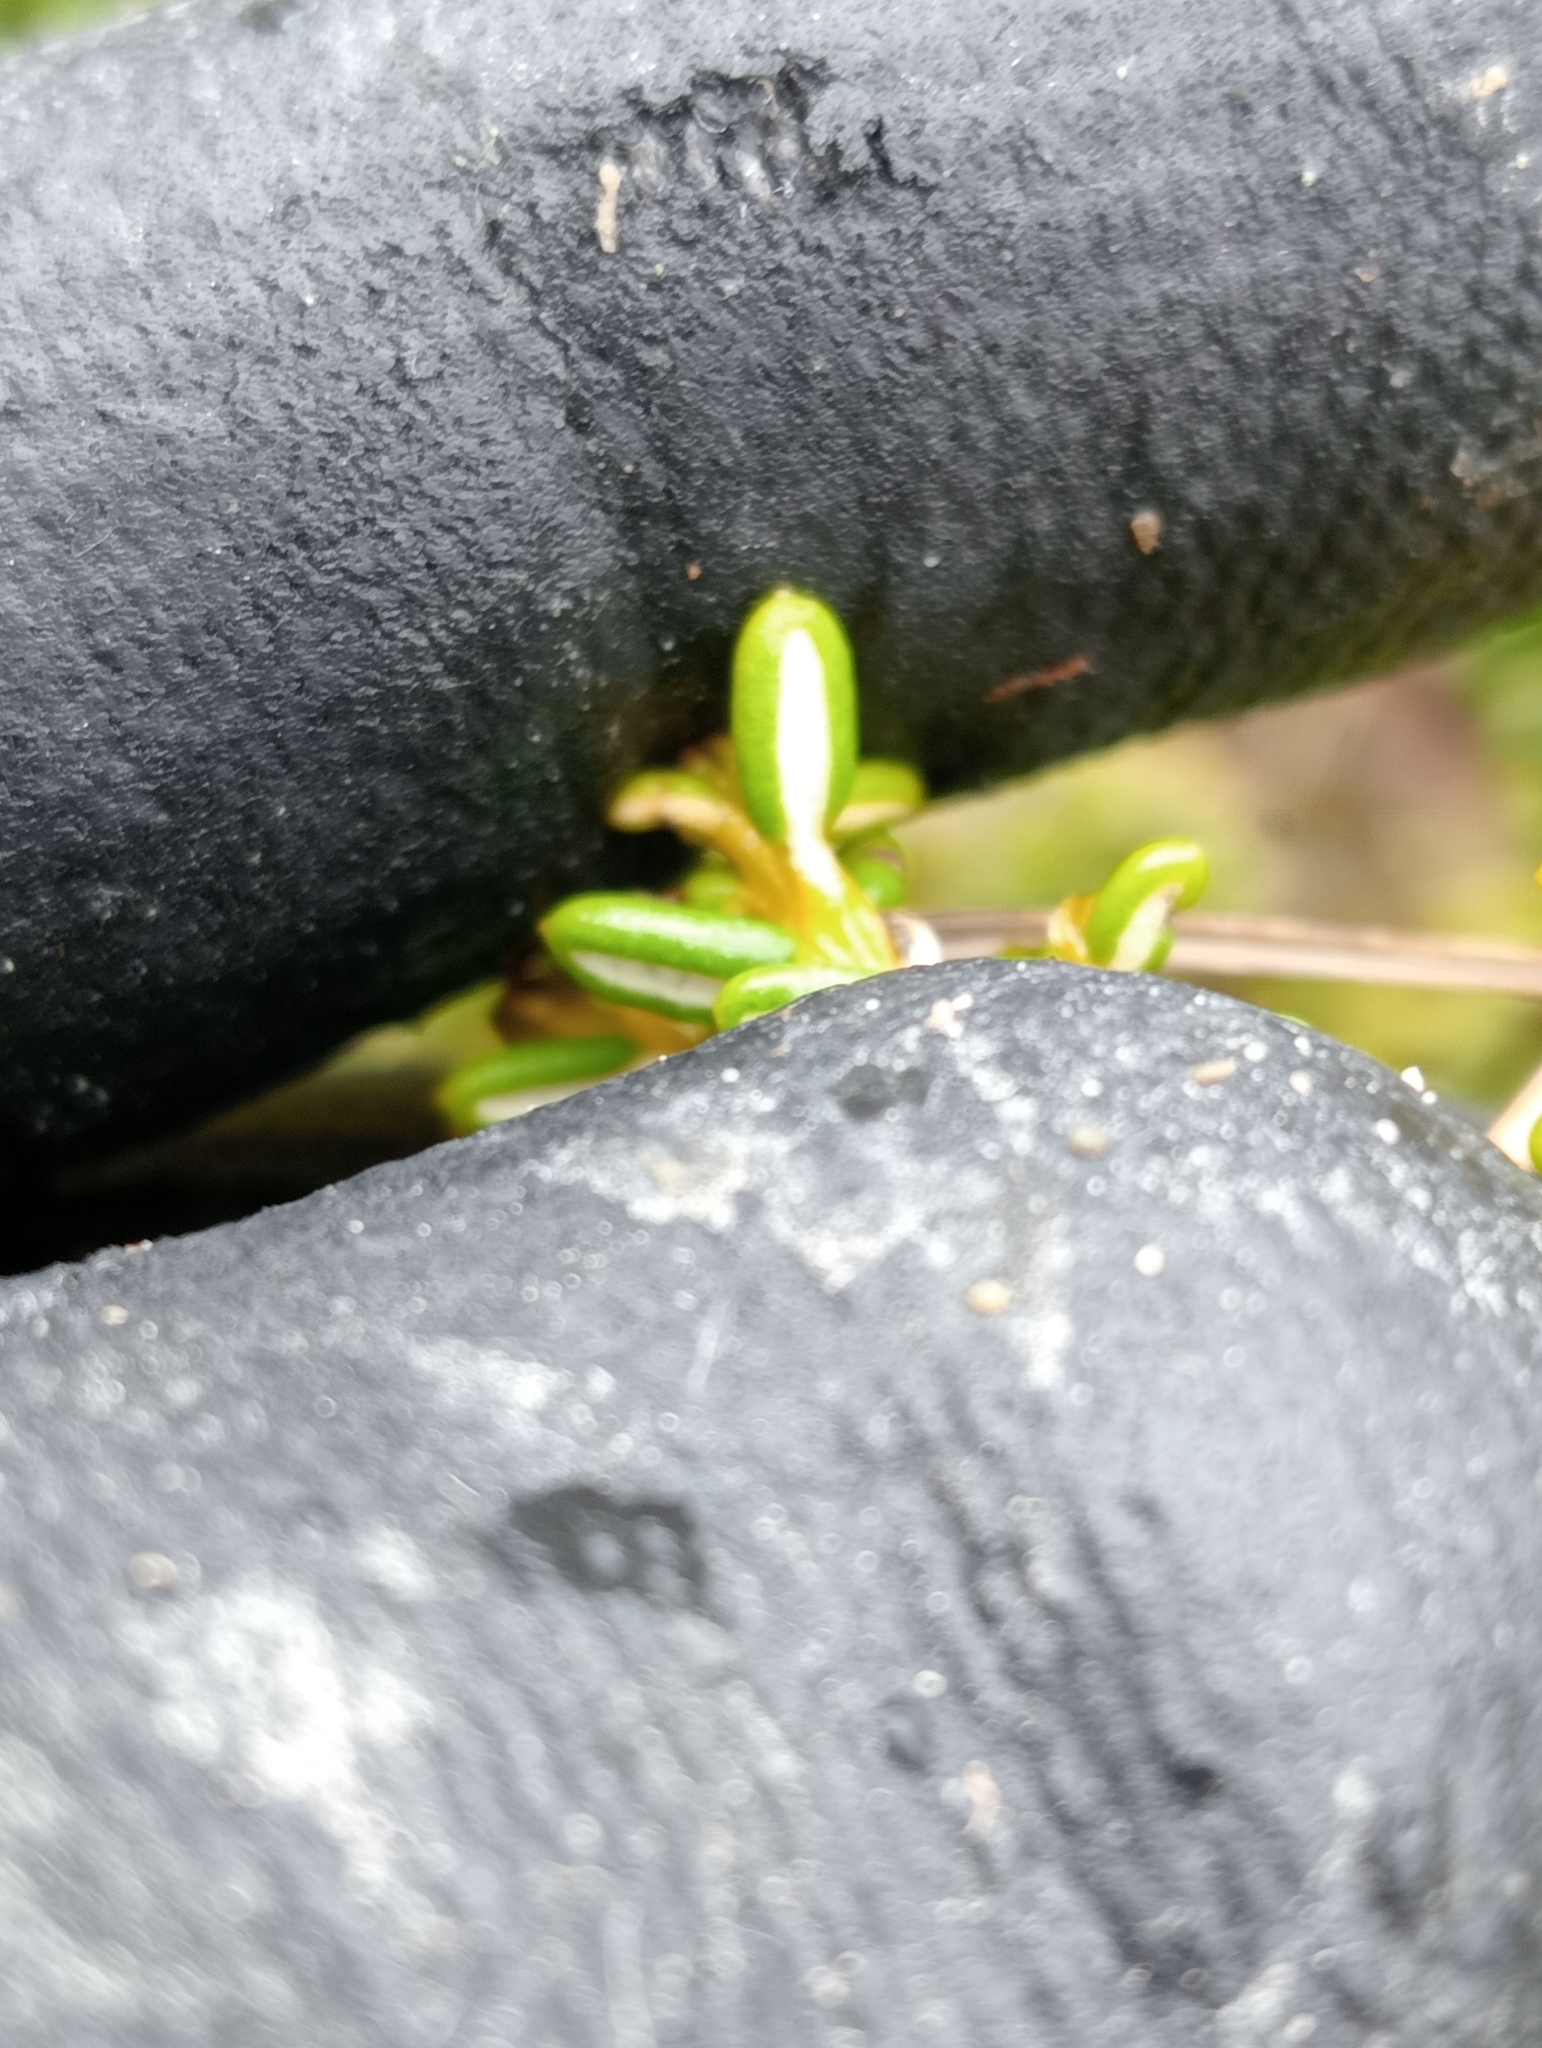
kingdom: Plantae
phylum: Tracheophyta
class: Magnoliopsida
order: Asterales
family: Asteraceae
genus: Olearia
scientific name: Olearia cymbifolia
